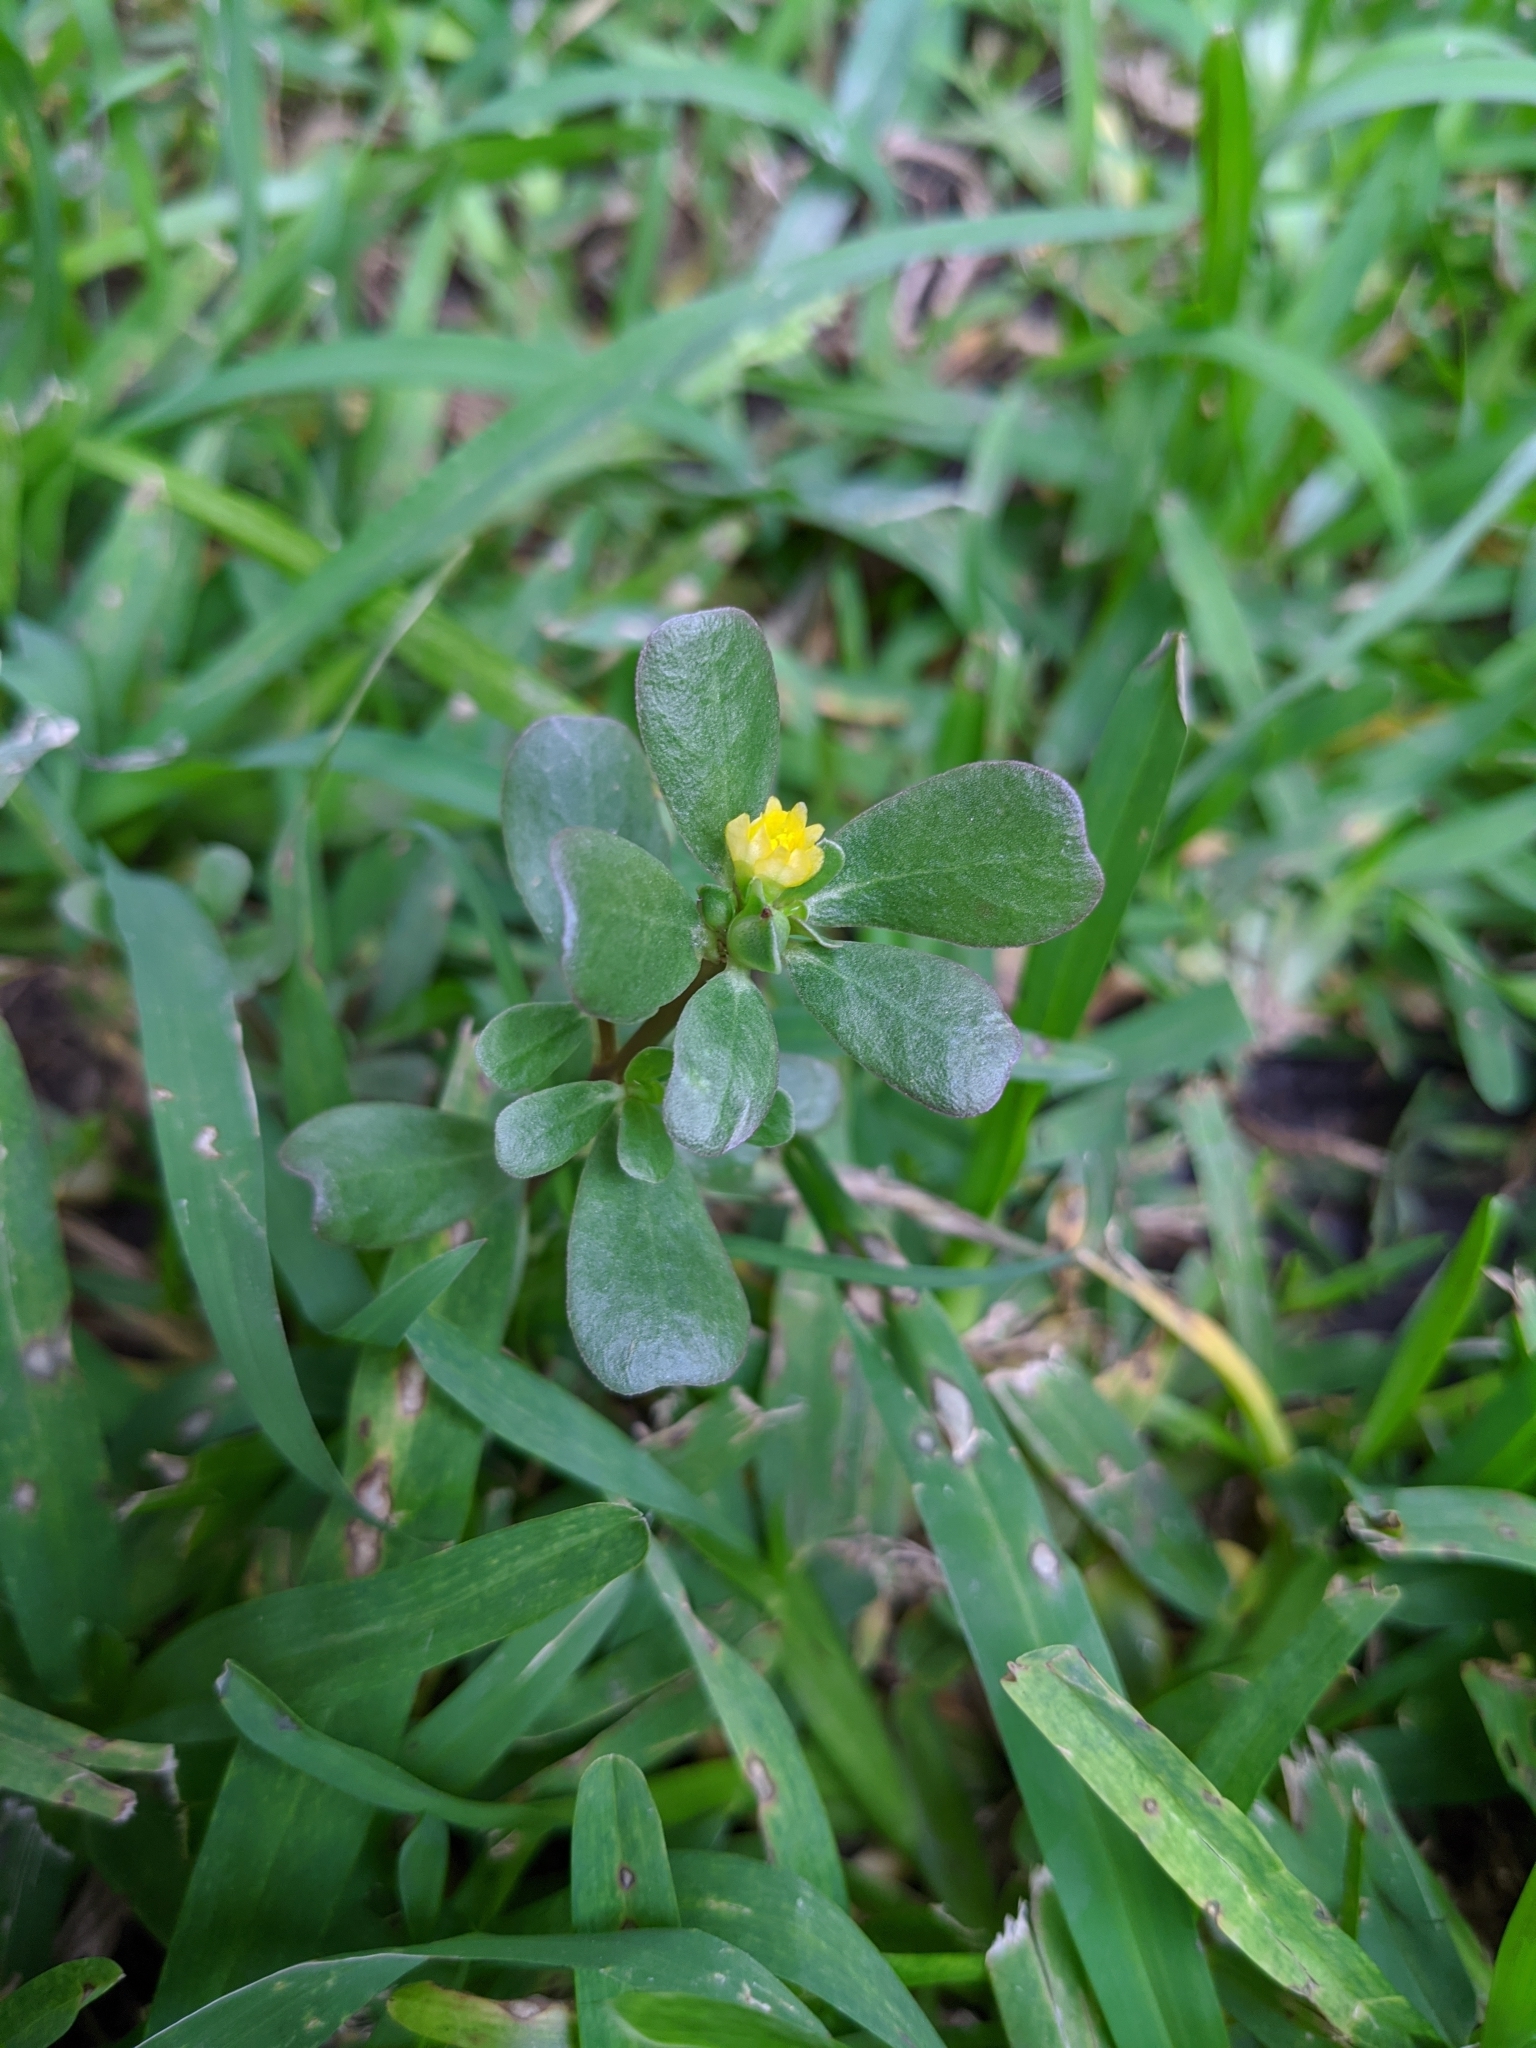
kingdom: Plantae
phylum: Tracheophyta
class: Magnoliopsida
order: Caryophyllales
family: Portulacaceae
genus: Portulaca
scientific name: Portulaca oleracea
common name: Common purslane
